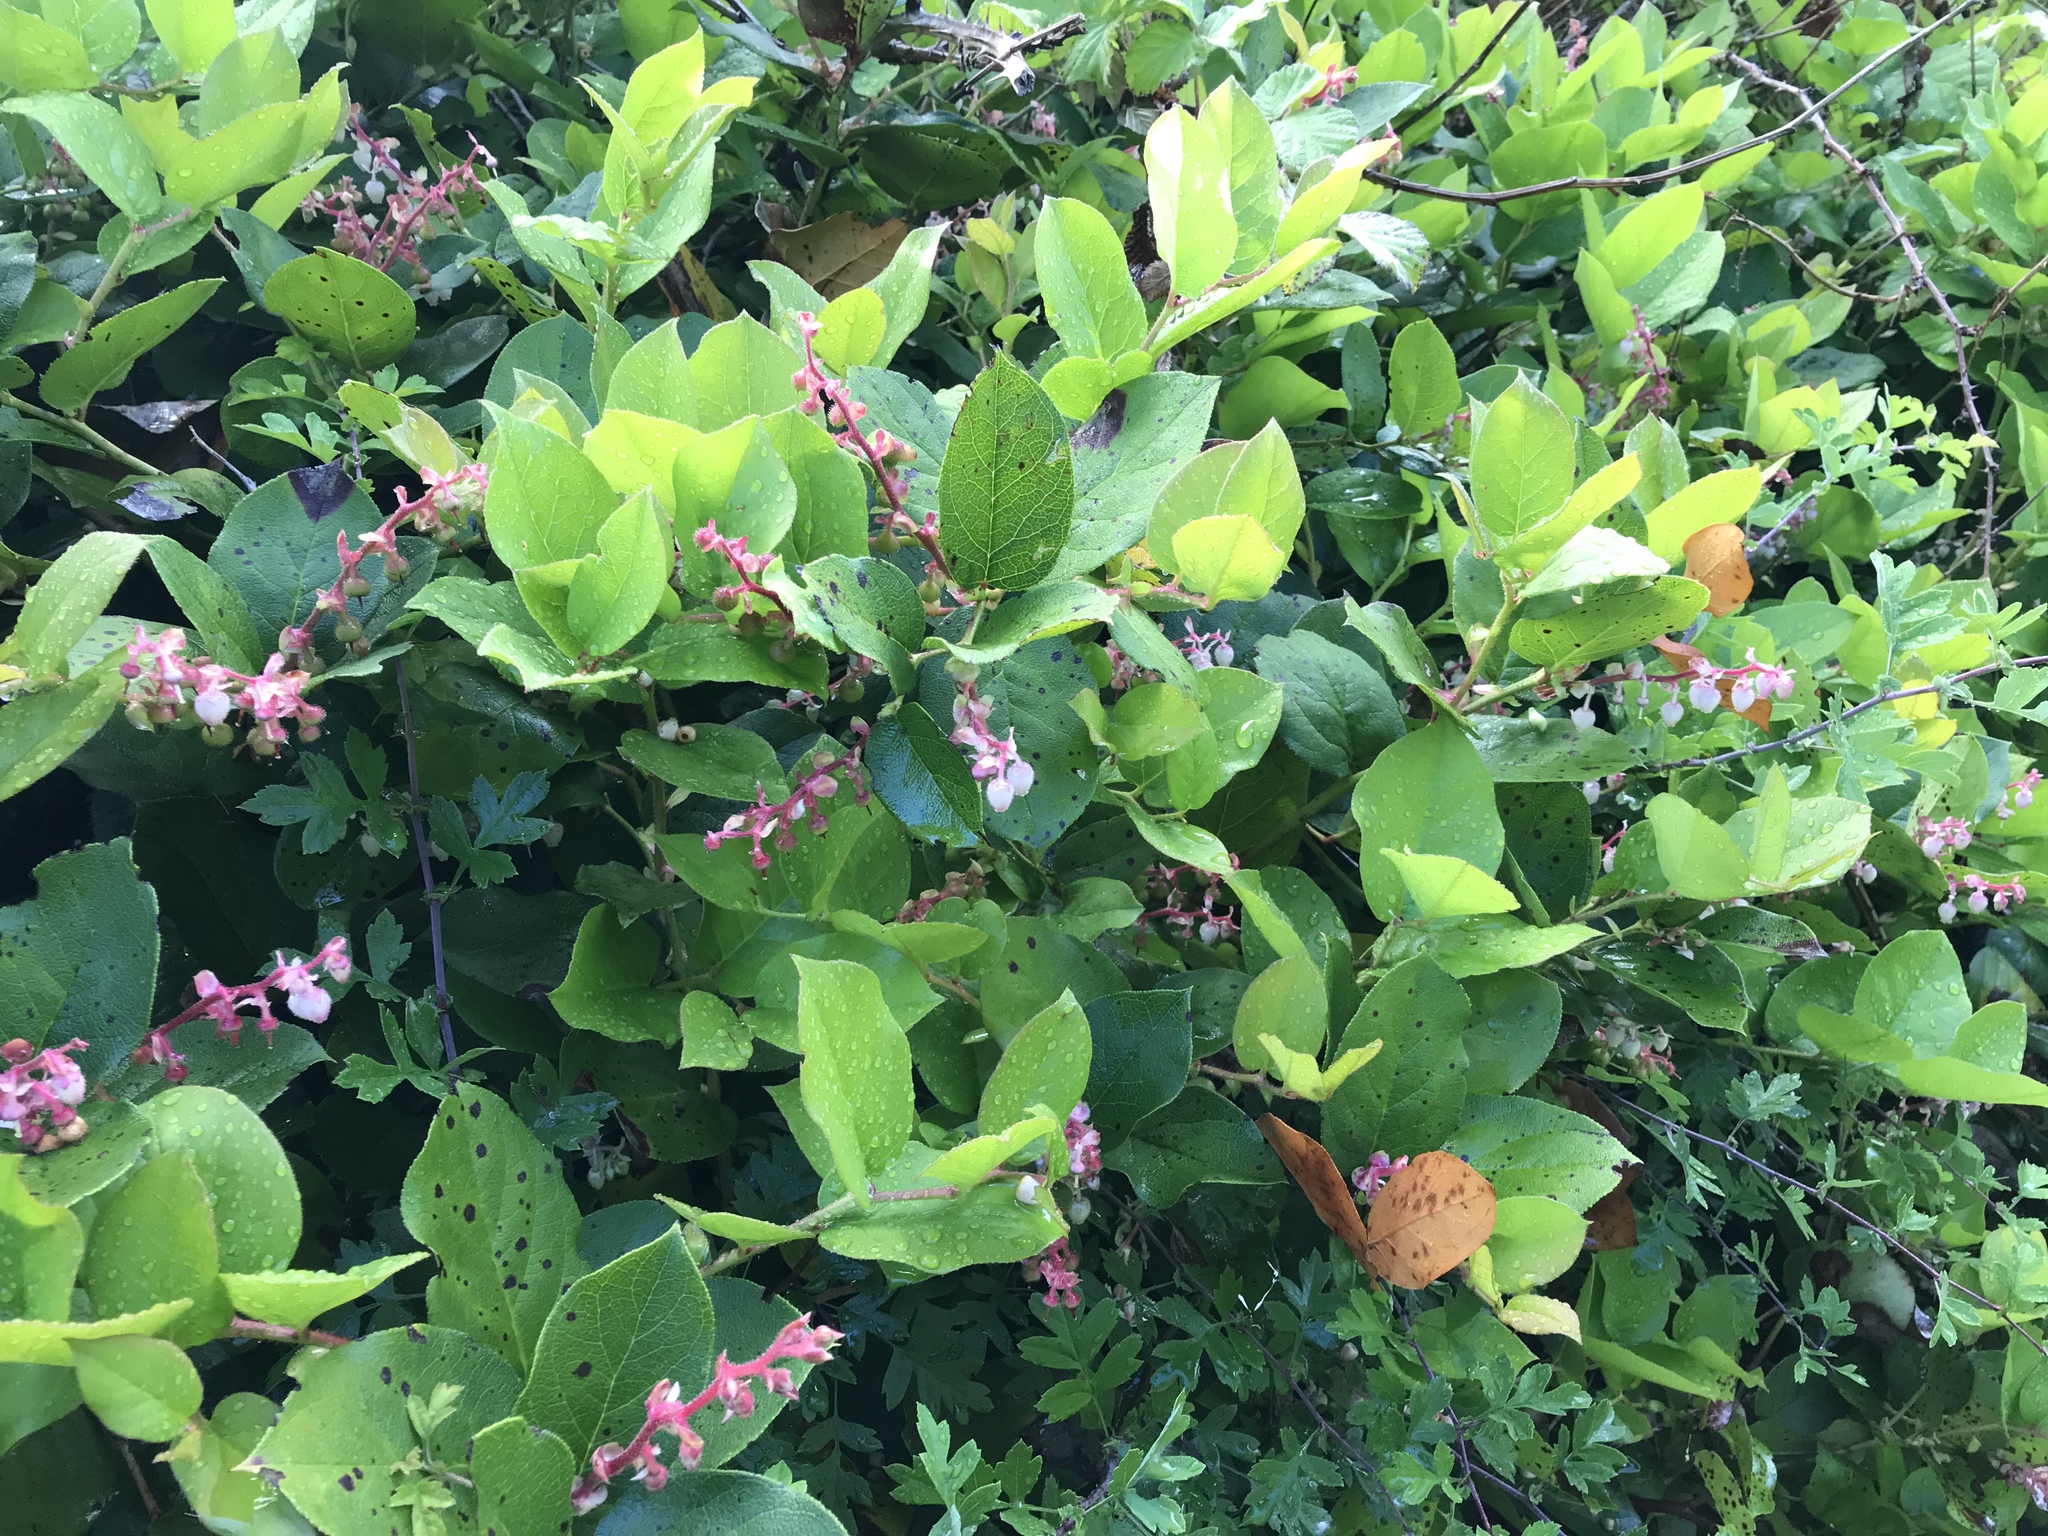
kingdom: Plantae
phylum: Tracheophyta
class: Magnoliopsida
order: Ericales
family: Ericaceae
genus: Gaultheria
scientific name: Gaultheria shallon
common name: Shallon
